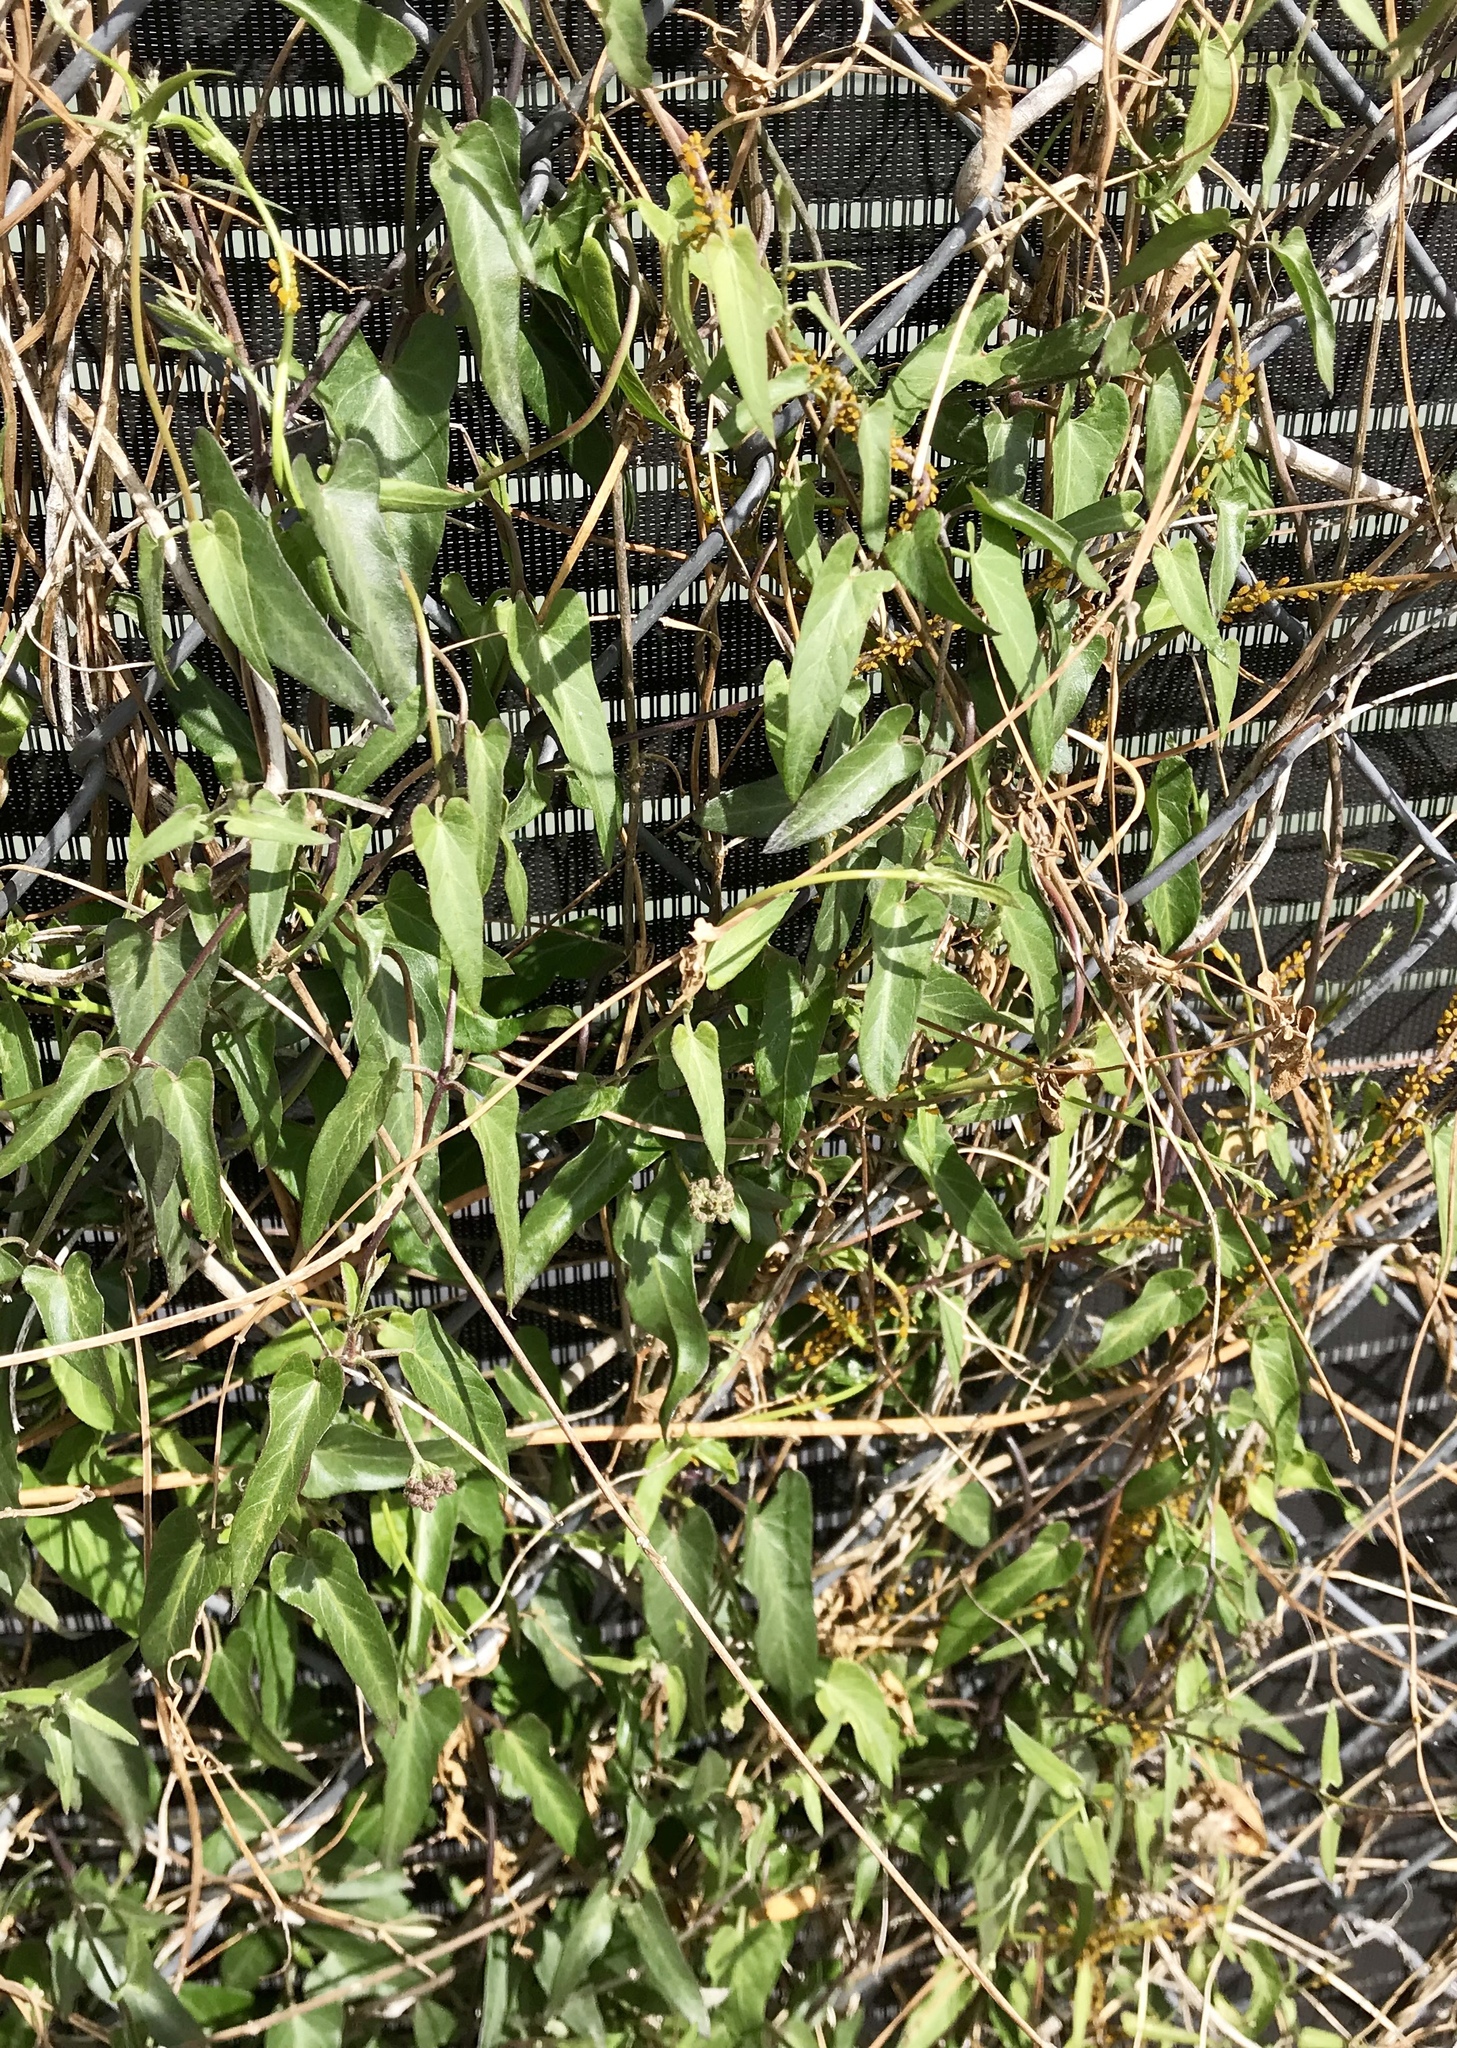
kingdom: Plantae
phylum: Tracheophyta
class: Magnoliopsida
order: Solanales
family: Convolvulaceae
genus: Calystegia
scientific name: Calystegia sepium
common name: Hedge bindweed
